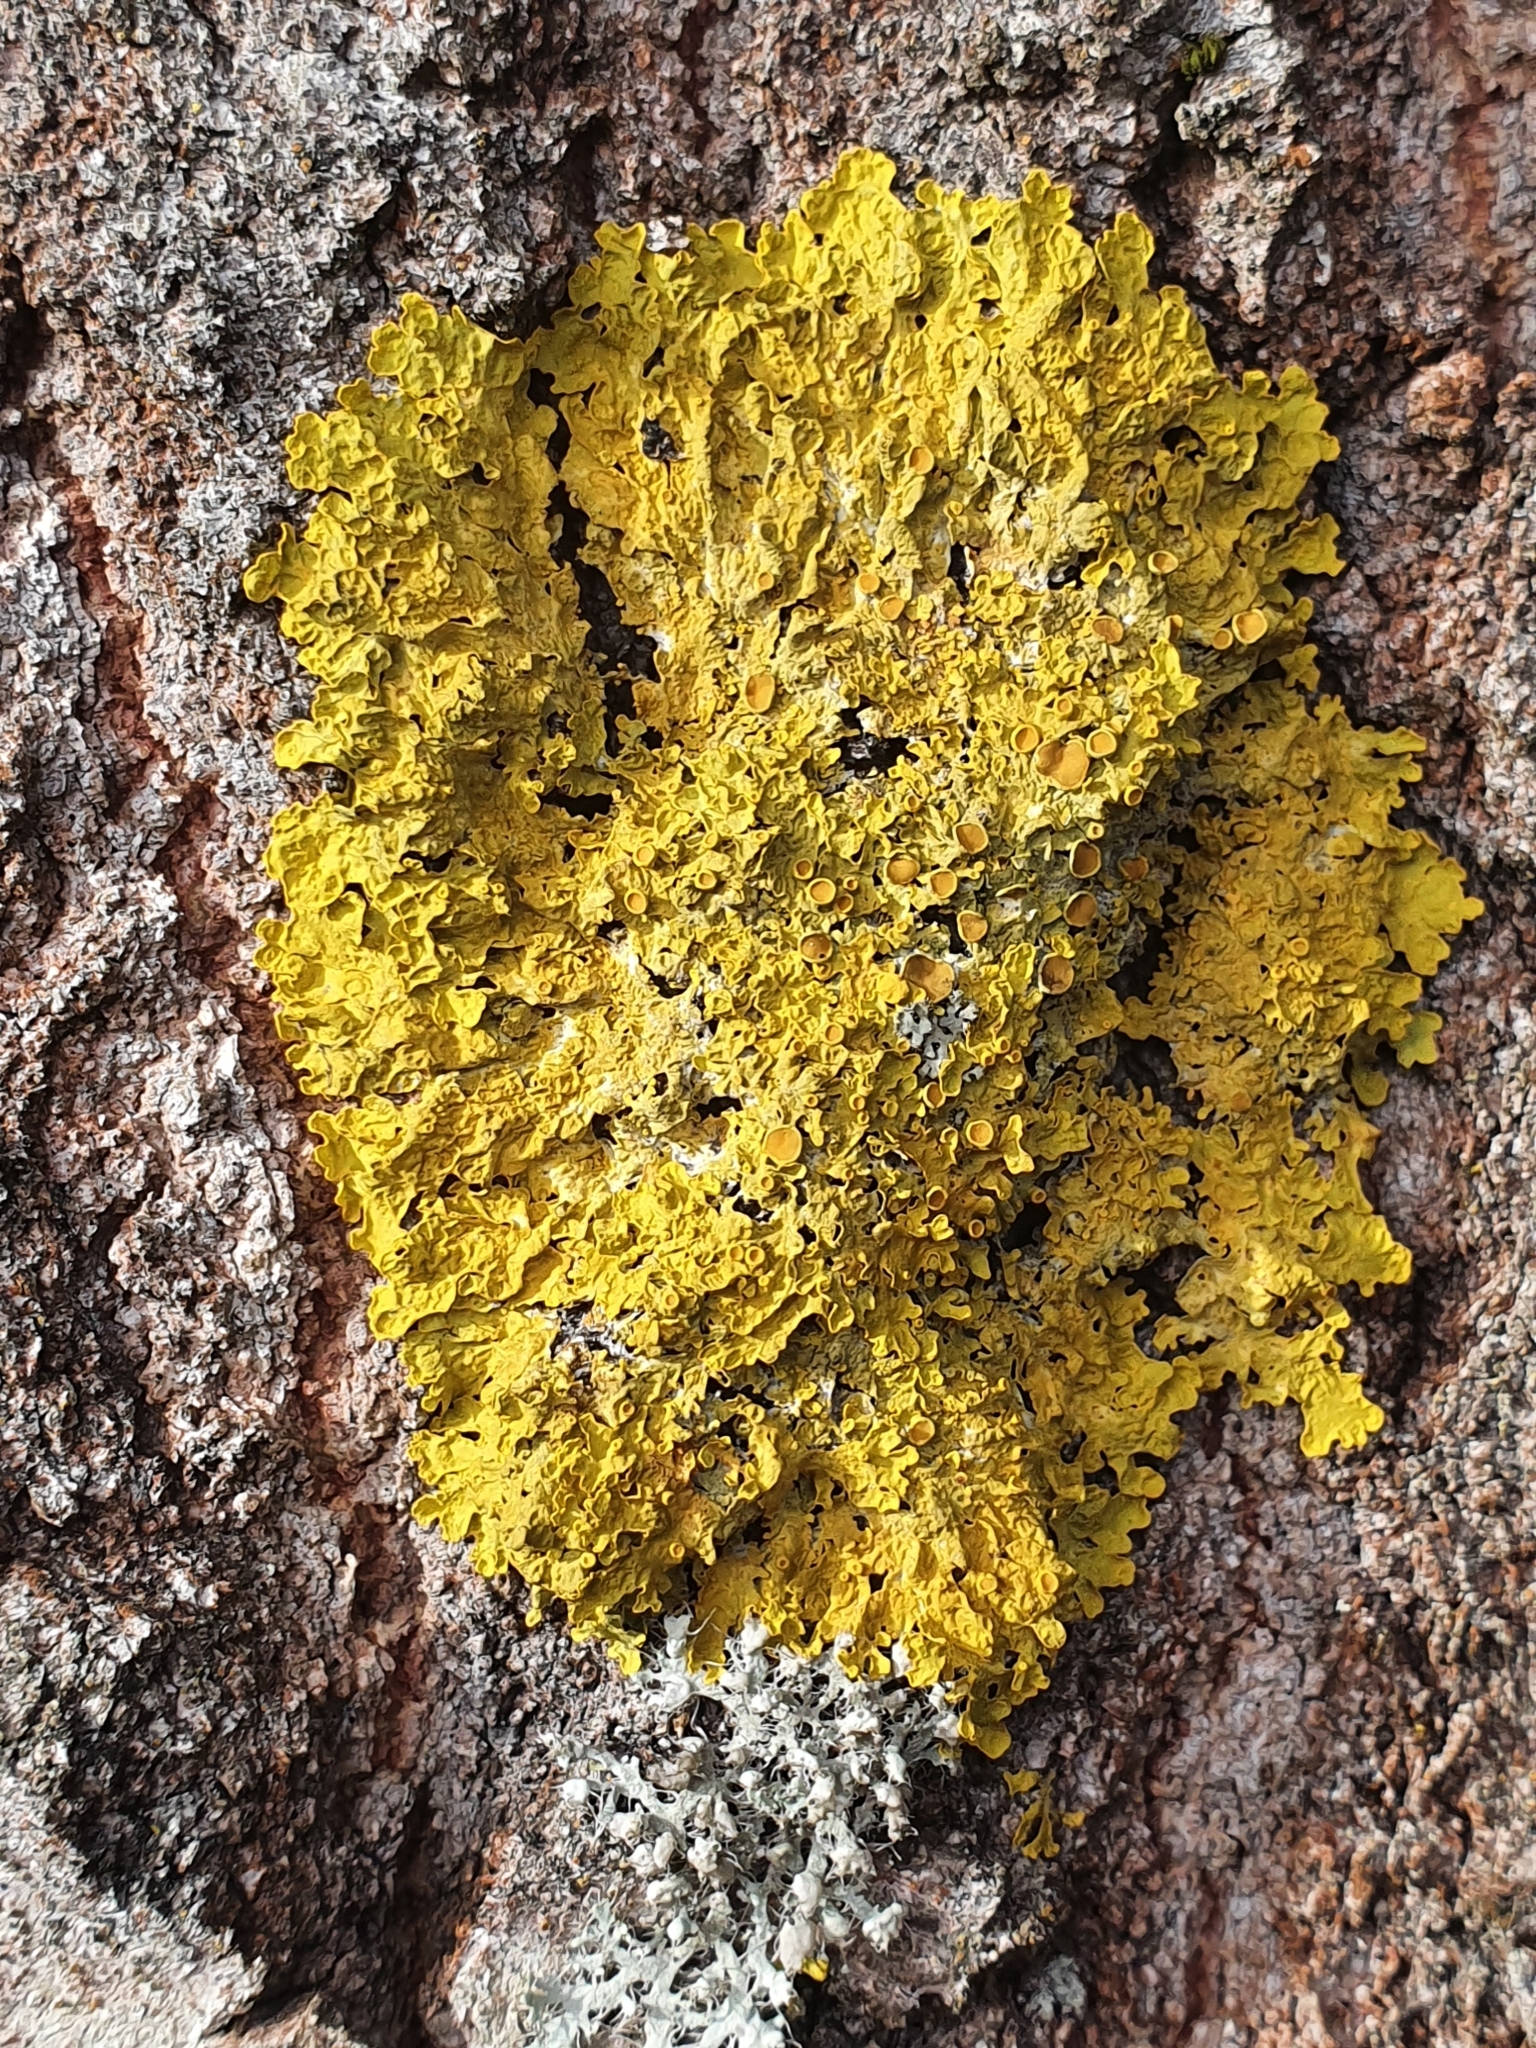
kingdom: Fungi
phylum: Ascomycota
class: Lecanoromycetes
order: Teloschistales
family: Teloschistaceae
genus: Xanthoria
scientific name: Xanthoria parietina
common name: Common orange lichen
